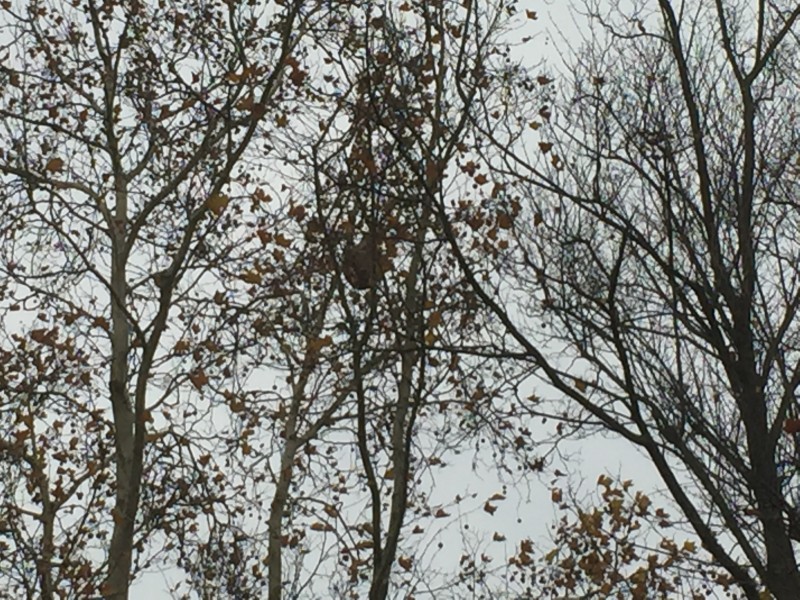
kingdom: Animalia
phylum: Arthropoda
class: Insecta
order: Hymenoptera
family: Vespidae
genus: Vespa
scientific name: Vespa velutina
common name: Asian hornet
